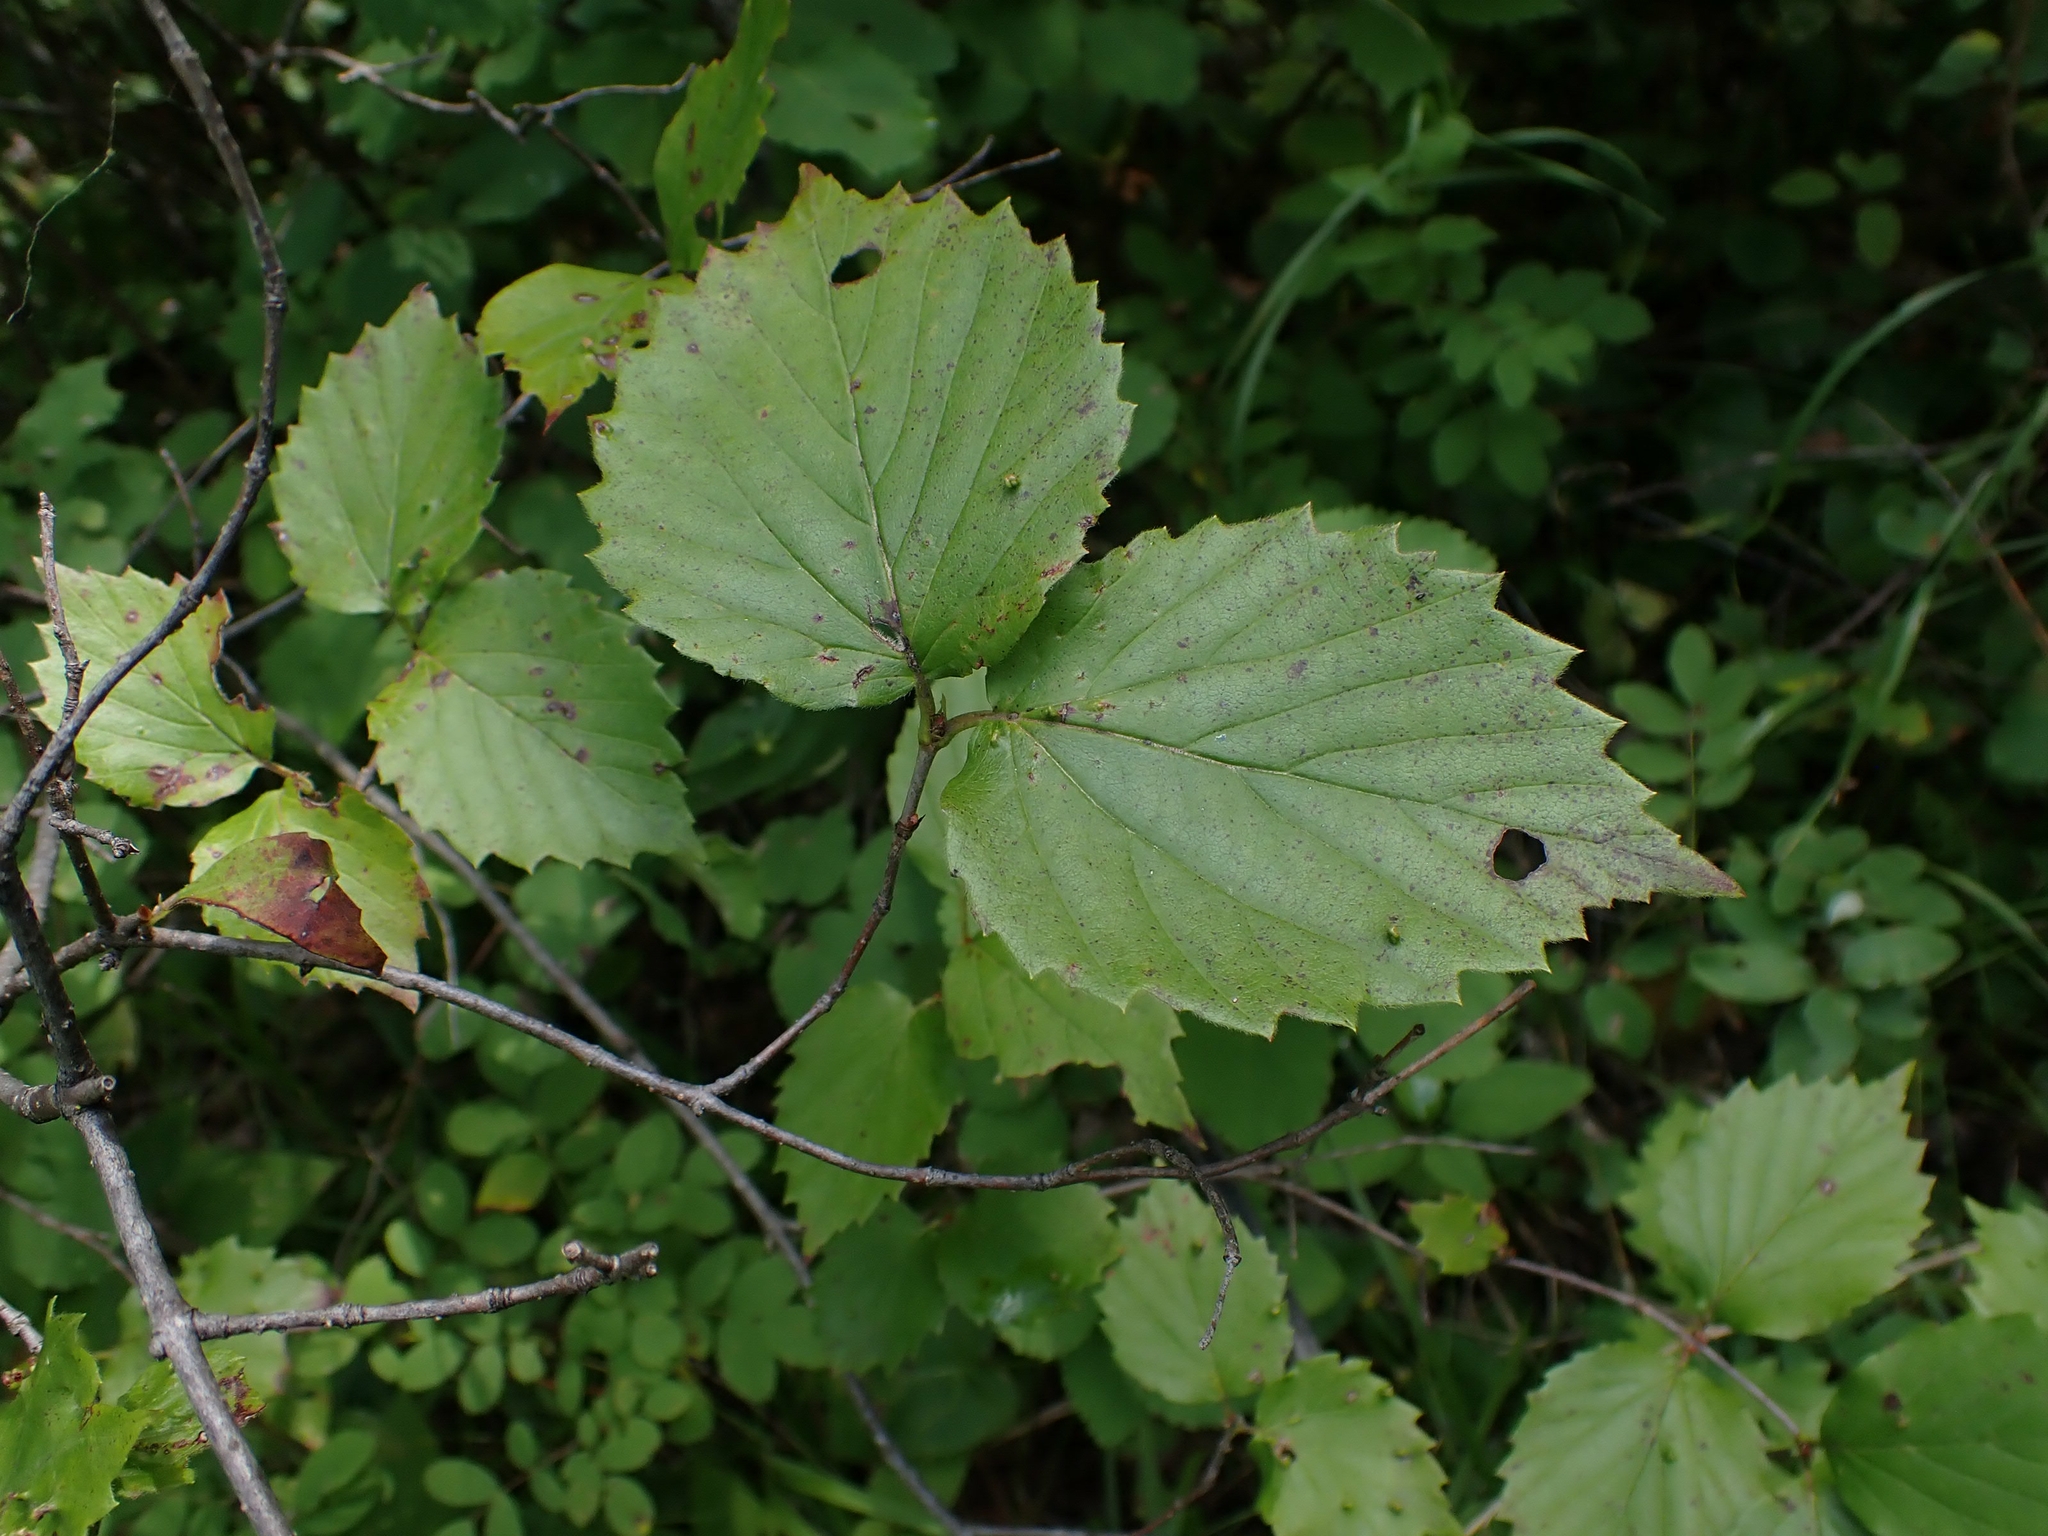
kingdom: Plantae
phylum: Tracheophyta
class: Magnoliopsida
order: Dipsacales
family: Viburnaceae
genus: Viburnum
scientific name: Viburnum rafinesqueanum
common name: Downy arrow-wood
